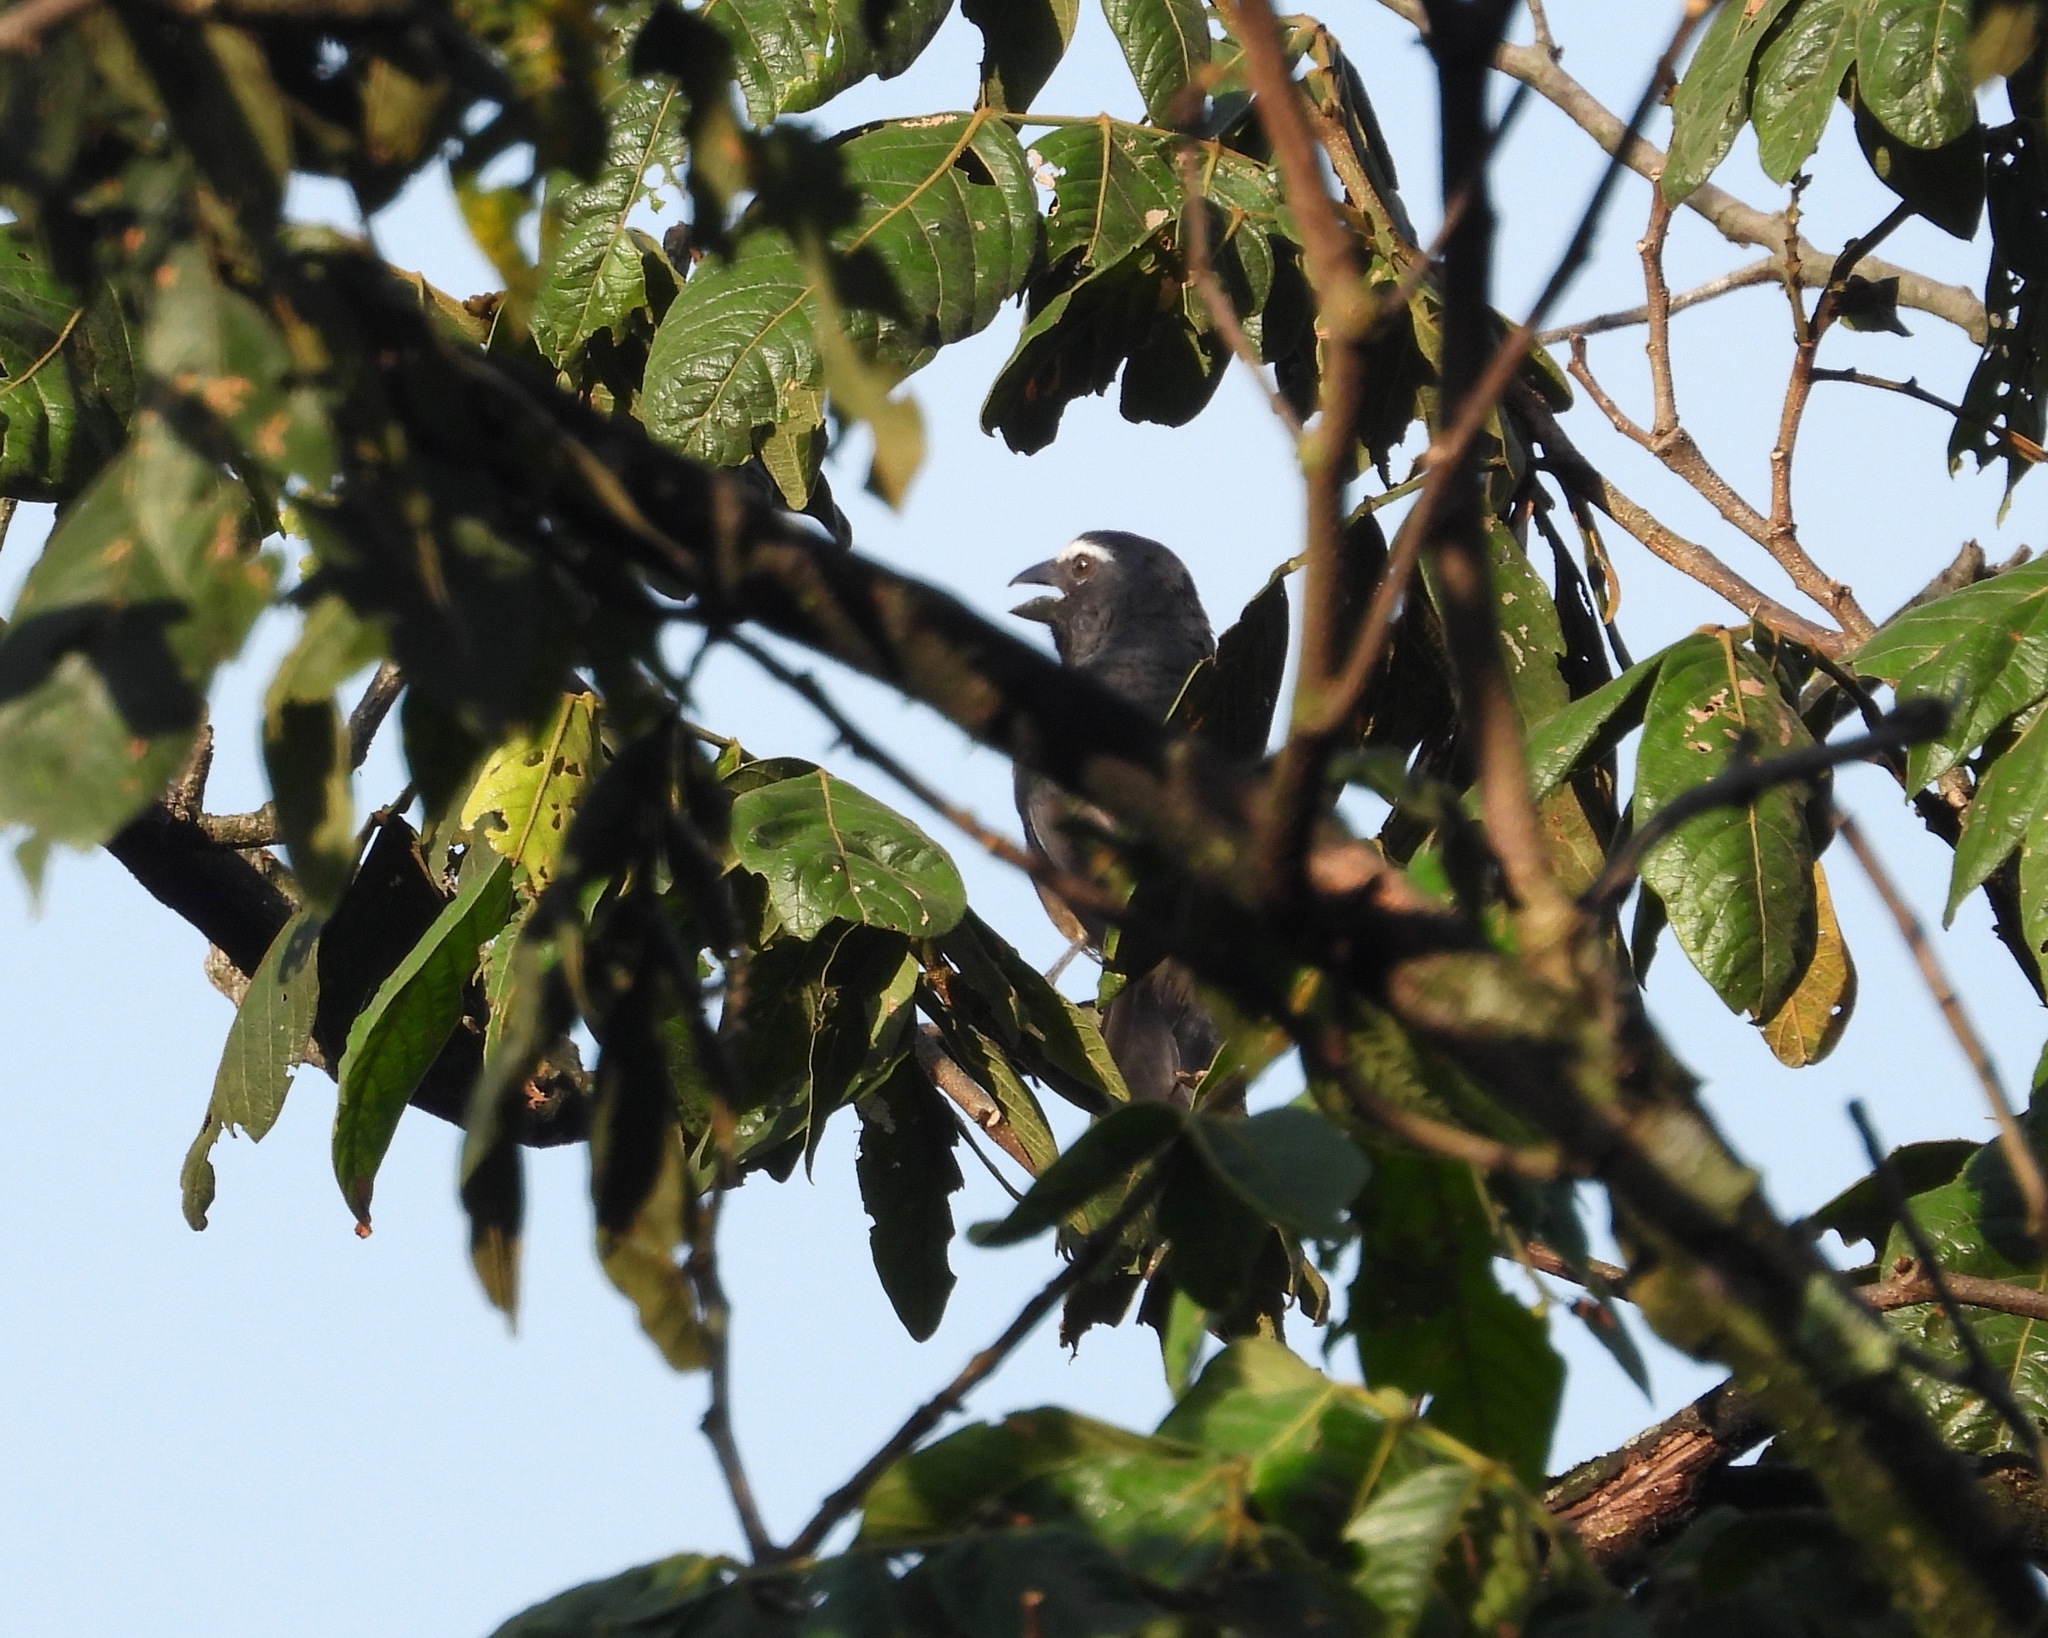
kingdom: Animalia
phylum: Chordata
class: Aves
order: Passeriformes
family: Thraupidae
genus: Saltator
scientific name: Saltator grandis
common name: Cinnamon-bellied saltator
